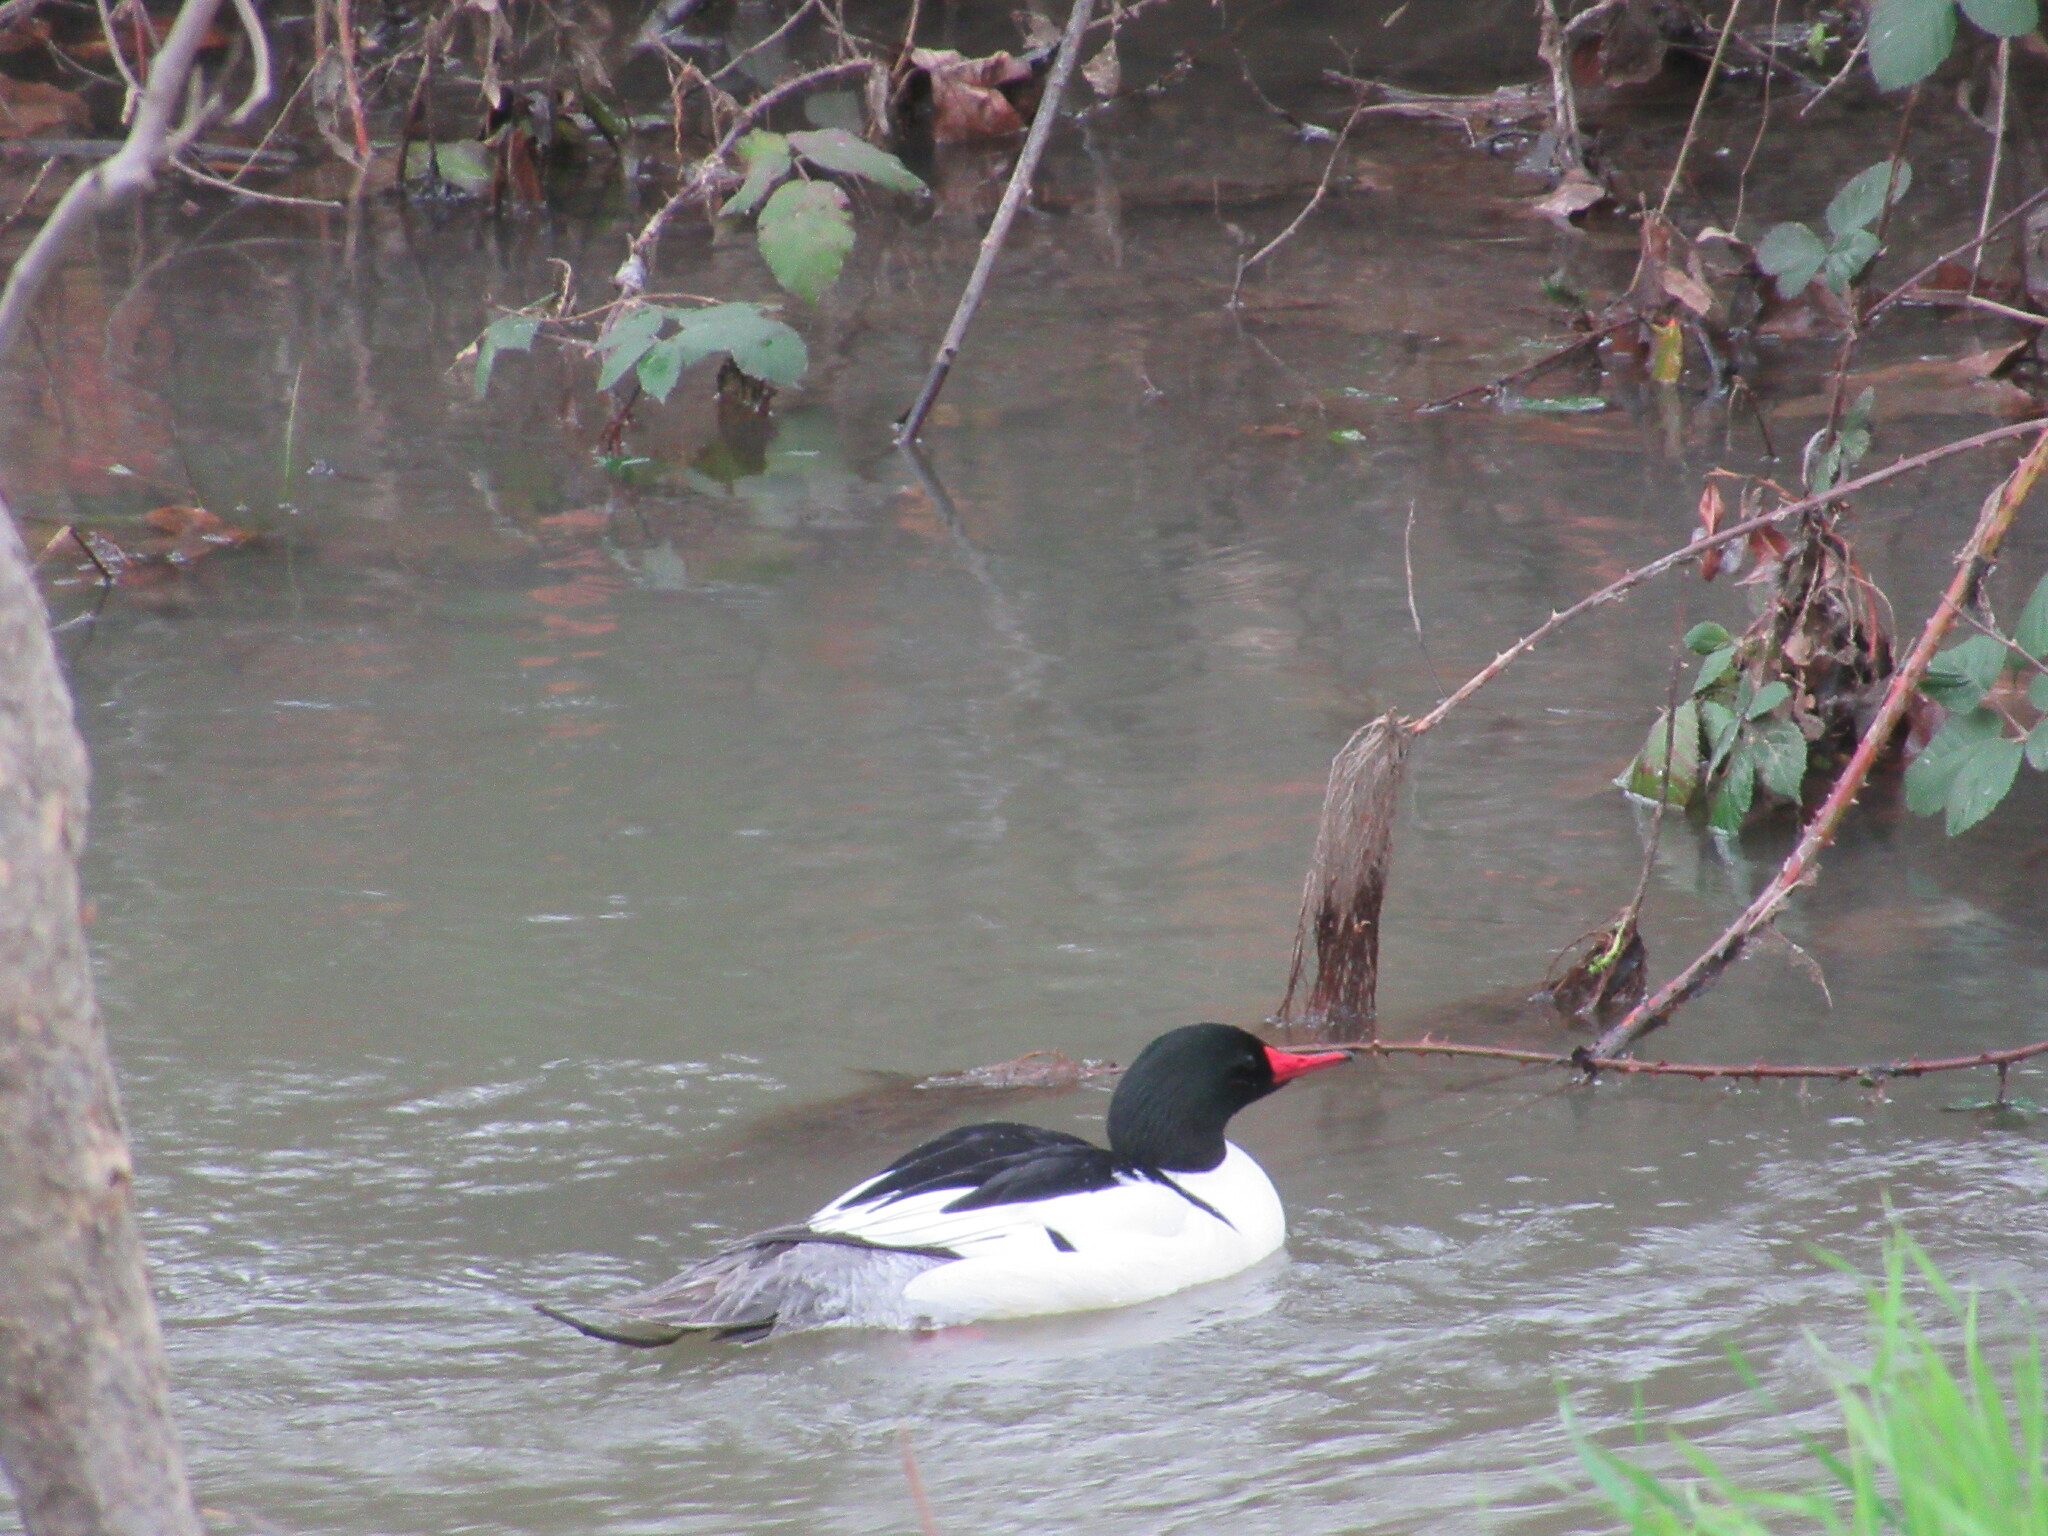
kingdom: Animalia
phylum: Chordata
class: Aves
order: Anseriformes
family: Anatidae
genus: Mergus
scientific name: Mergus merganser
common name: Common merganser
